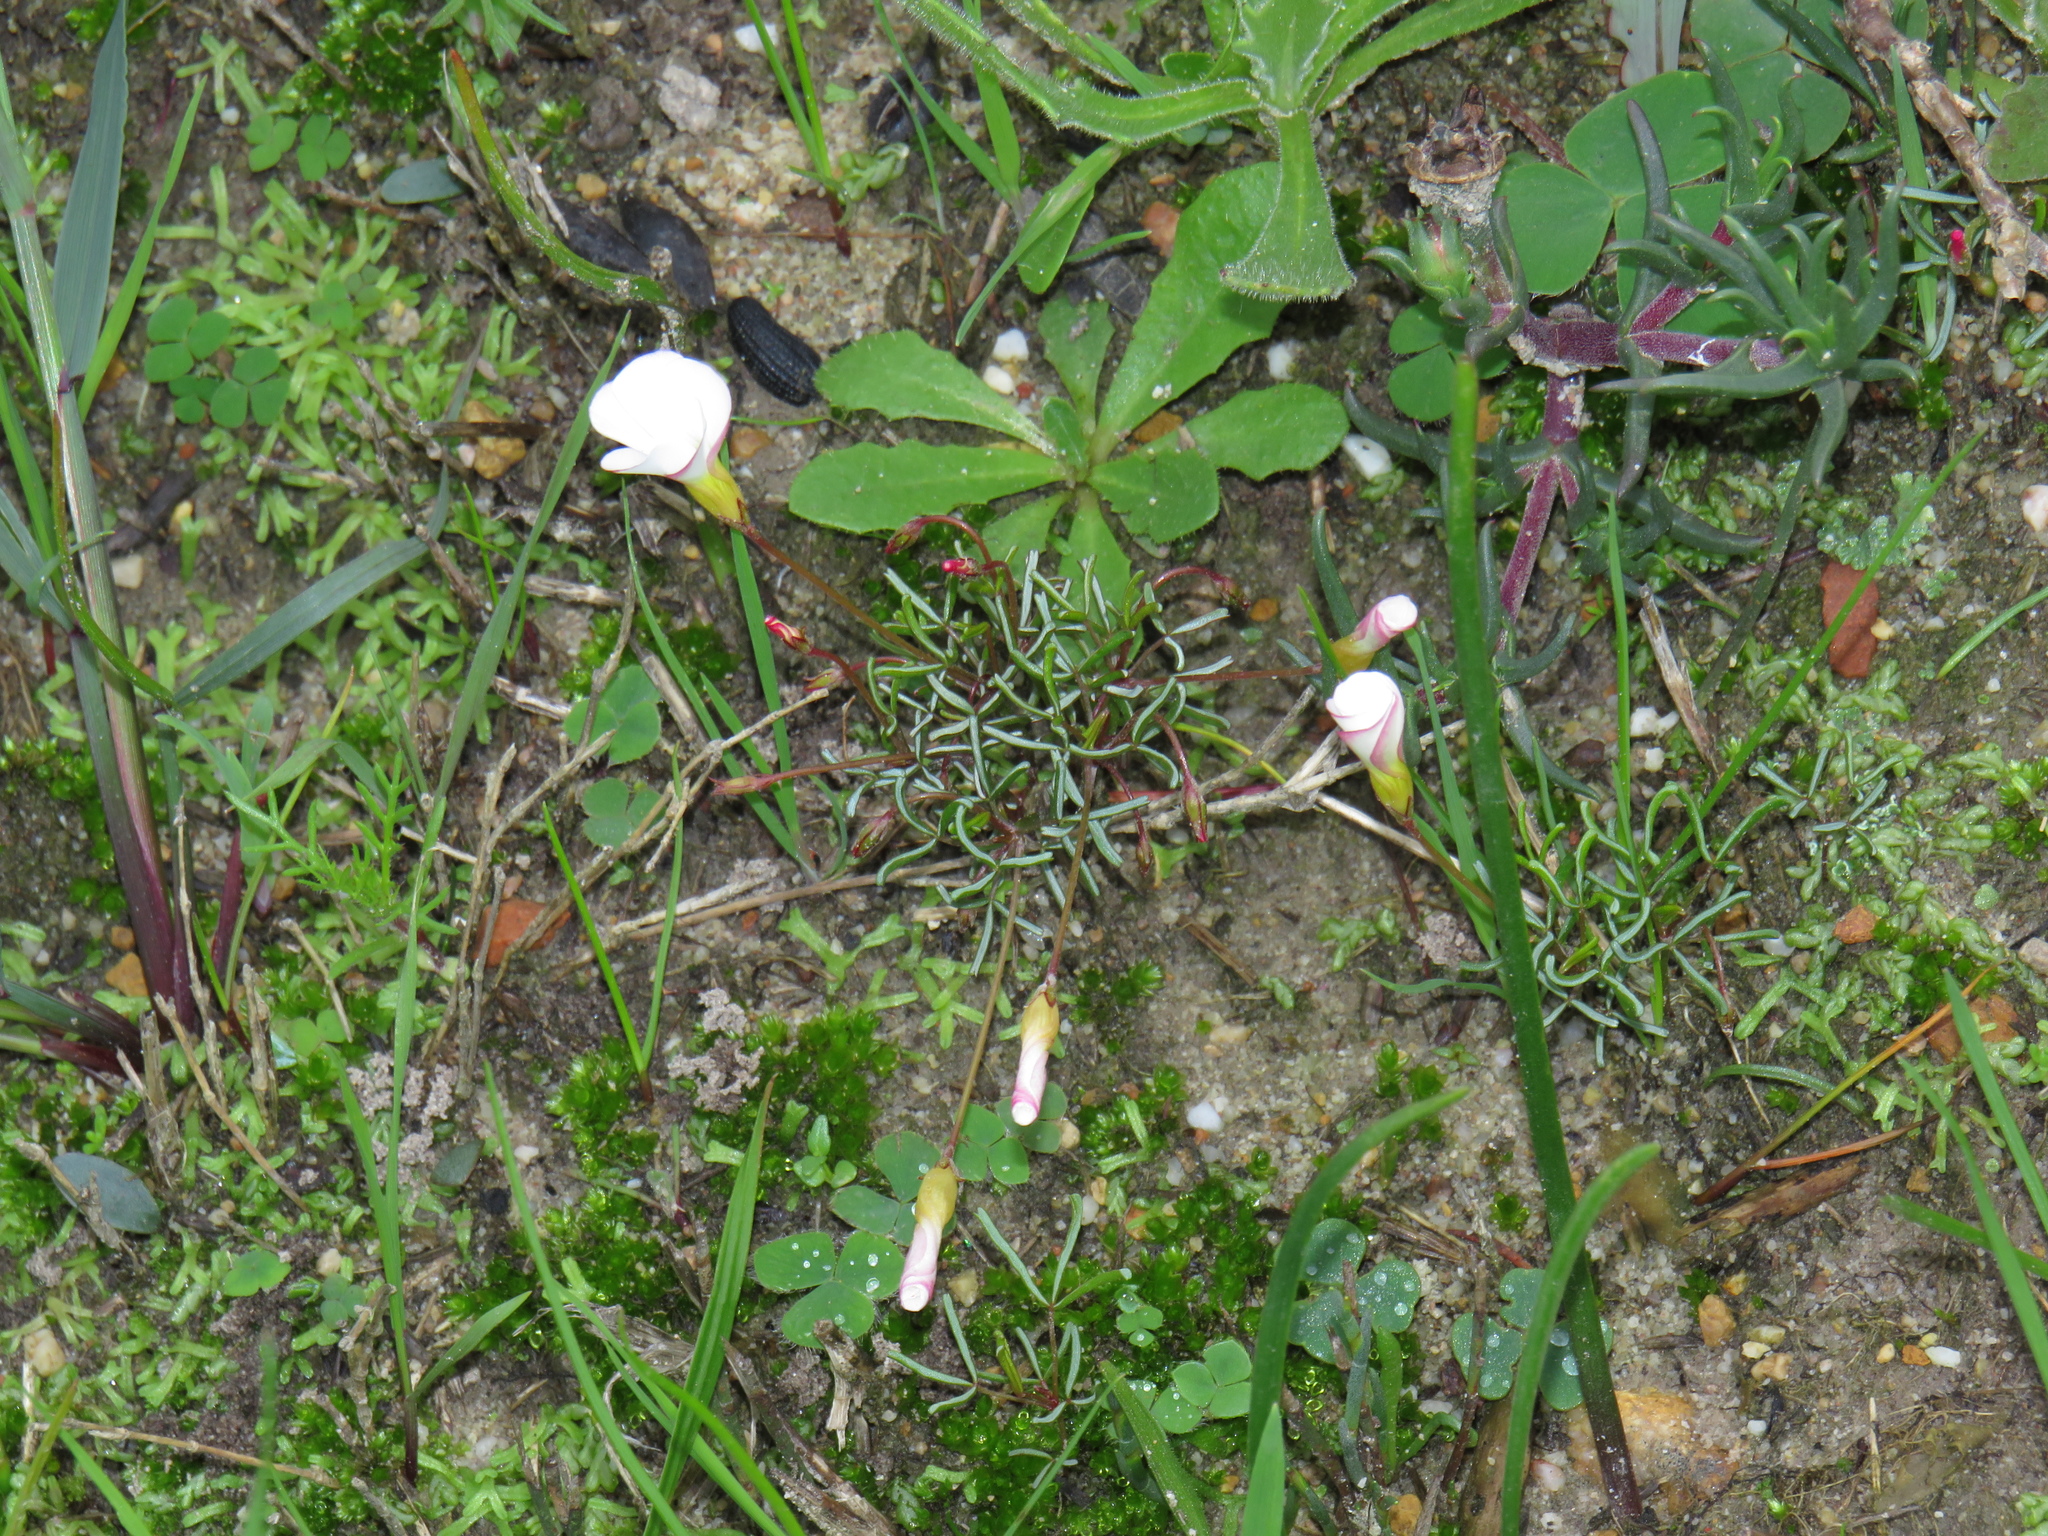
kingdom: Plantae
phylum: Tracheophyta
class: Magnoliopsida
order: Oxalidales
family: Oxalidaceae
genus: Oxalis
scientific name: Oxalis versicolor
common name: Peppermint rock oxalis
